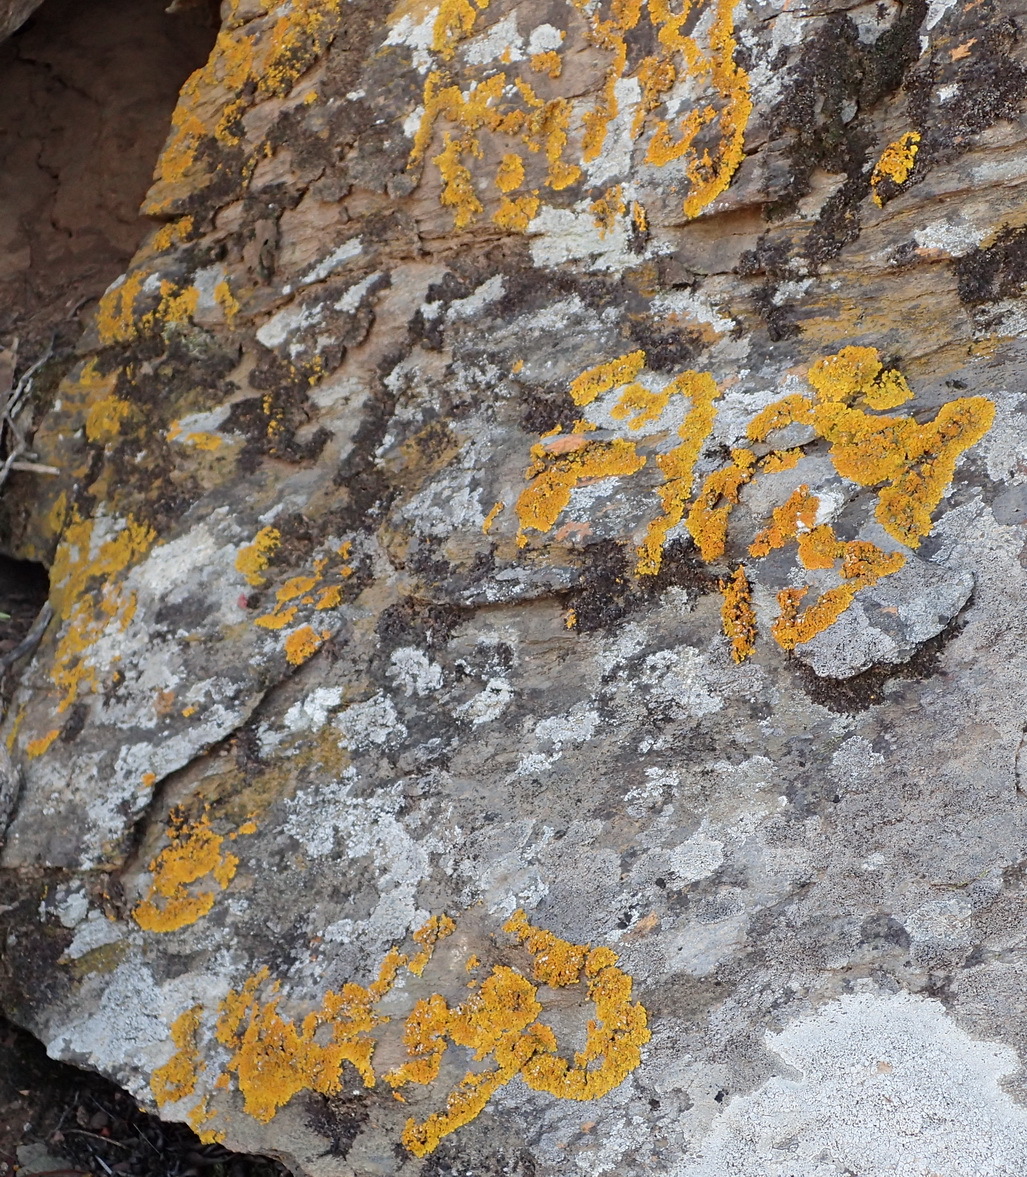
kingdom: Fungi
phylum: Ascomycota
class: Lecanoromycetes
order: Teloschistales
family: Teloschistaceae
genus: Xanthoria
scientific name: Xanthoria parietina
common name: Common orange lichen
